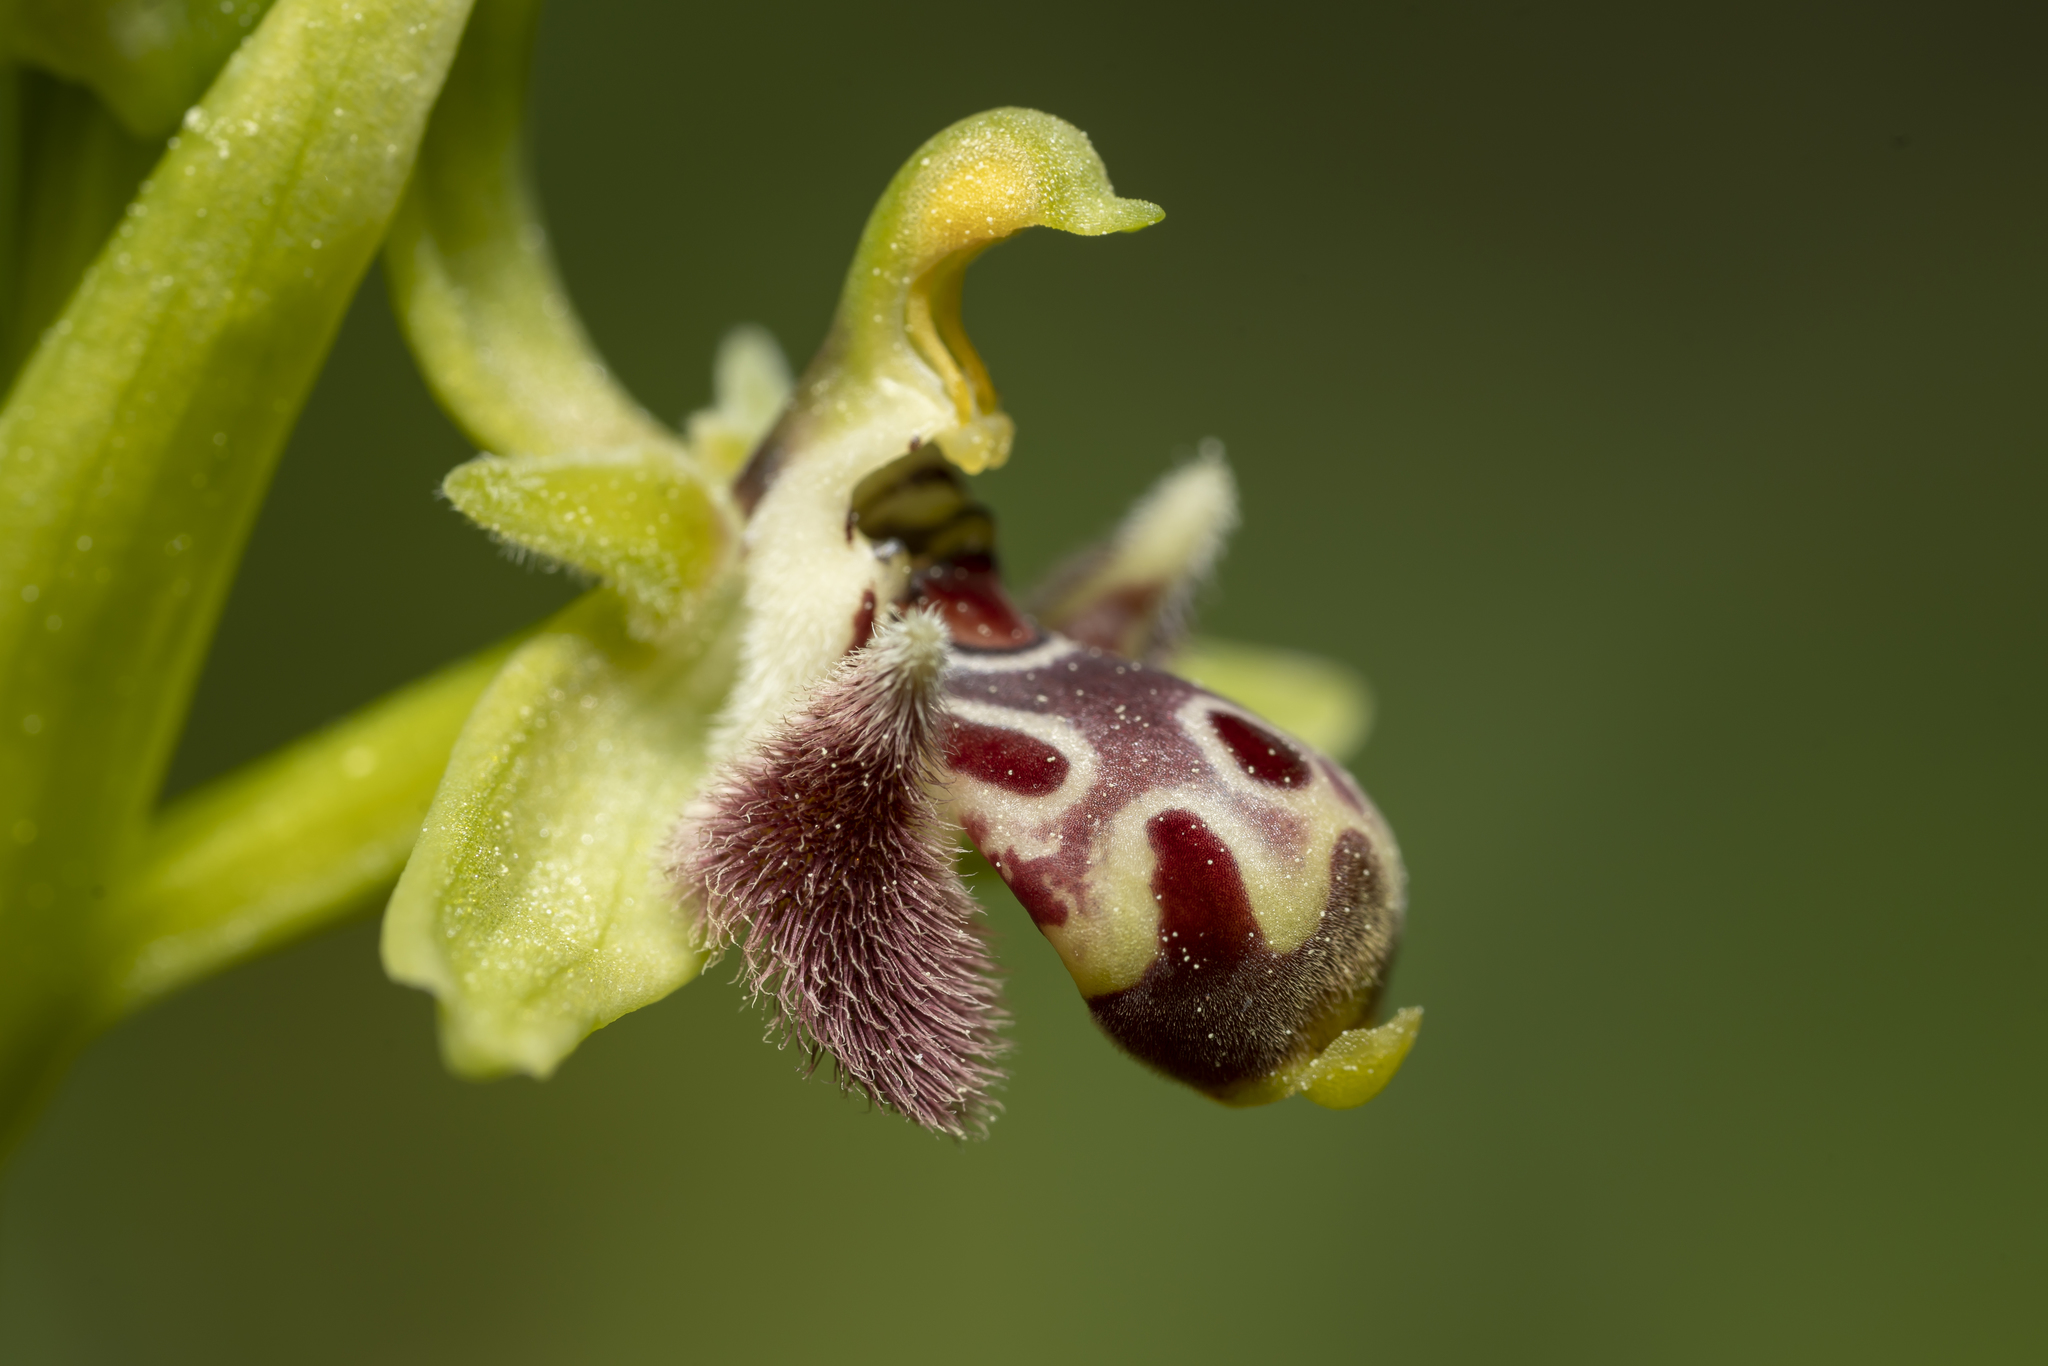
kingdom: Plantae
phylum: Tracheophyta
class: Liliopsida
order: Asparagales
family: Orchidaceae
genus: Ophrys
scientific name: Ophrys scolopax
